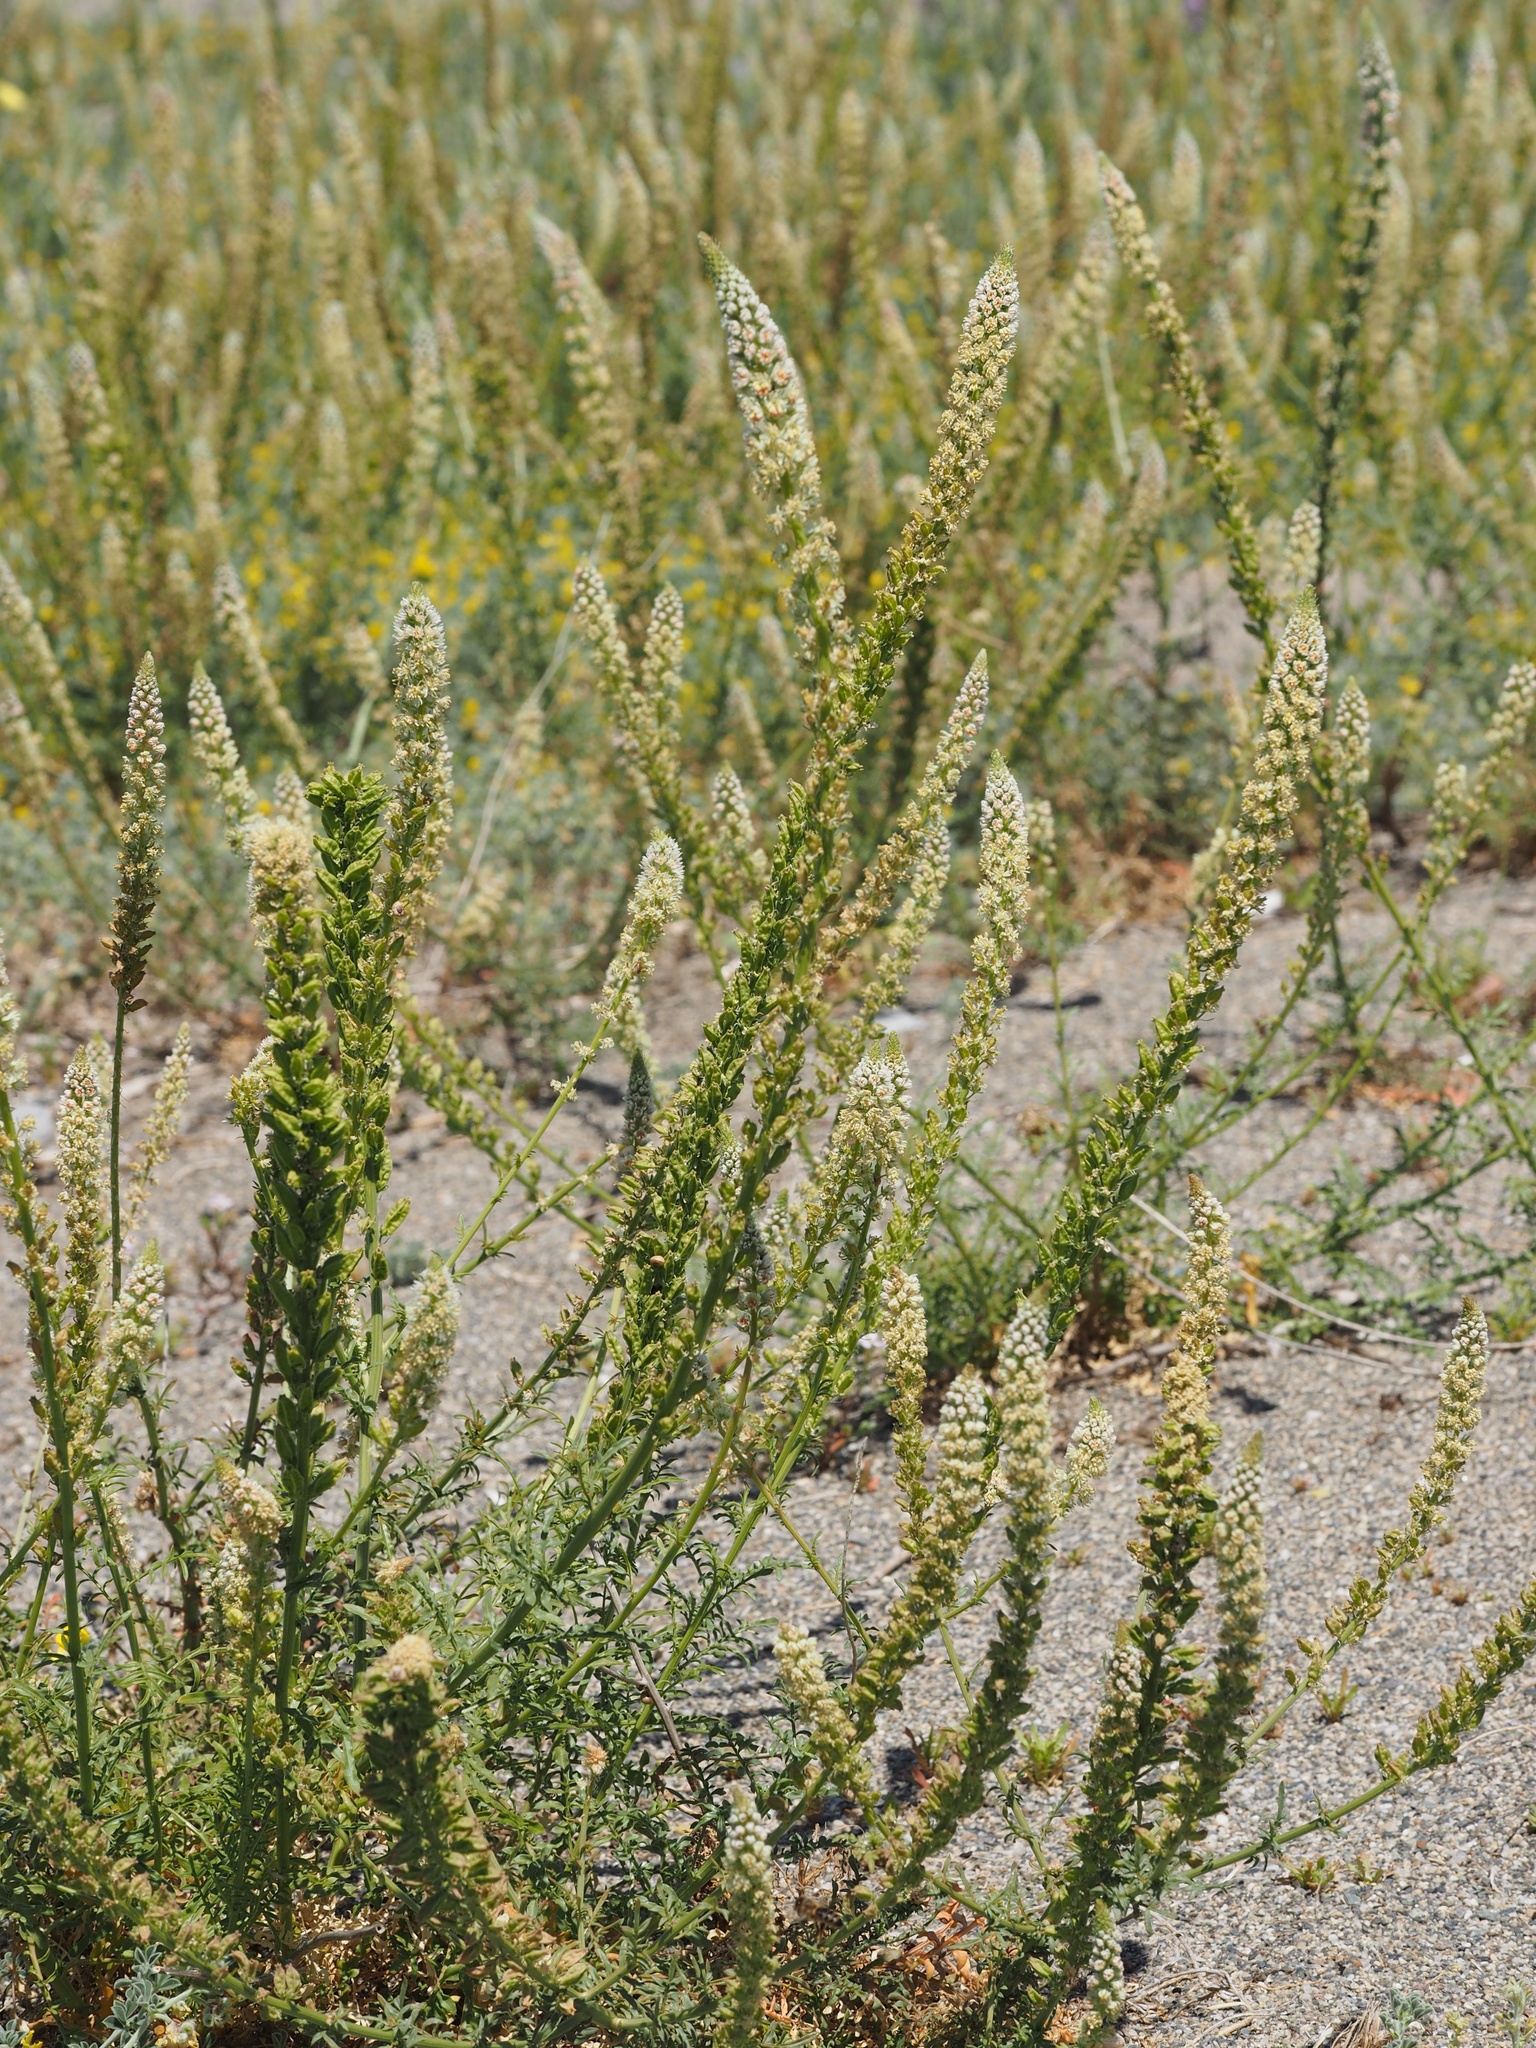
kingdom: Plantae
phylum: Tracheophyta
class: Magnoliopsida
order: Brassicales
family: Resedaceae
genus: Reseda
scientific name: Reseda alba
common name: White mignonette
